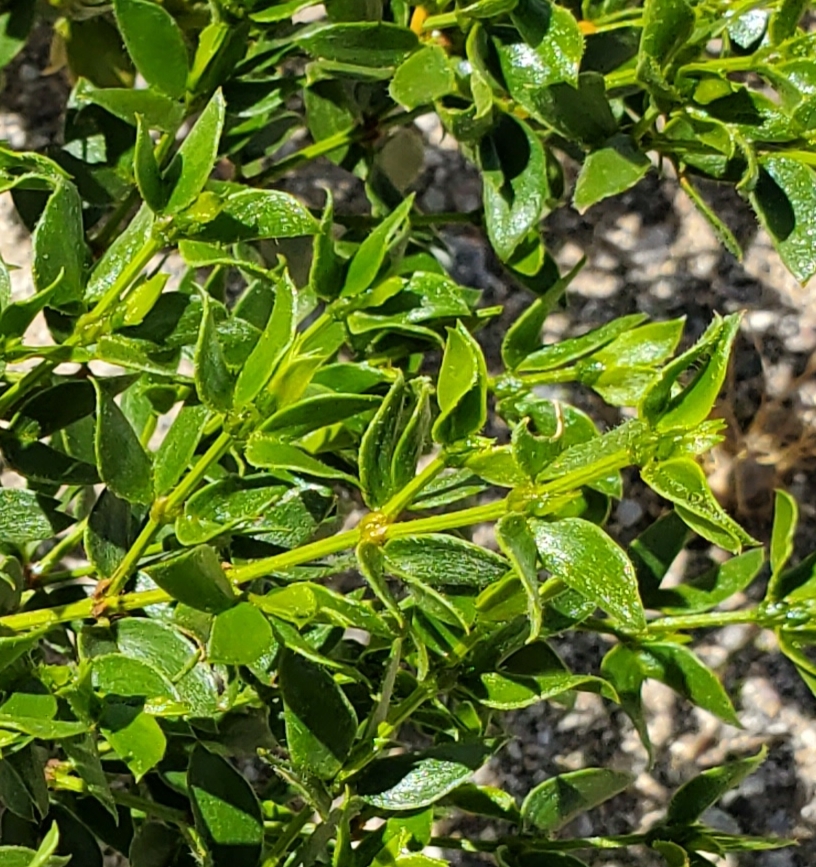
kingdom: Plantae
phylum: Tracheophyta
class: Magnoliopsida
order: Zygophyllales
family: Zygophyllaceae
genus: Larrea
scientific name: Larrea tridentata
